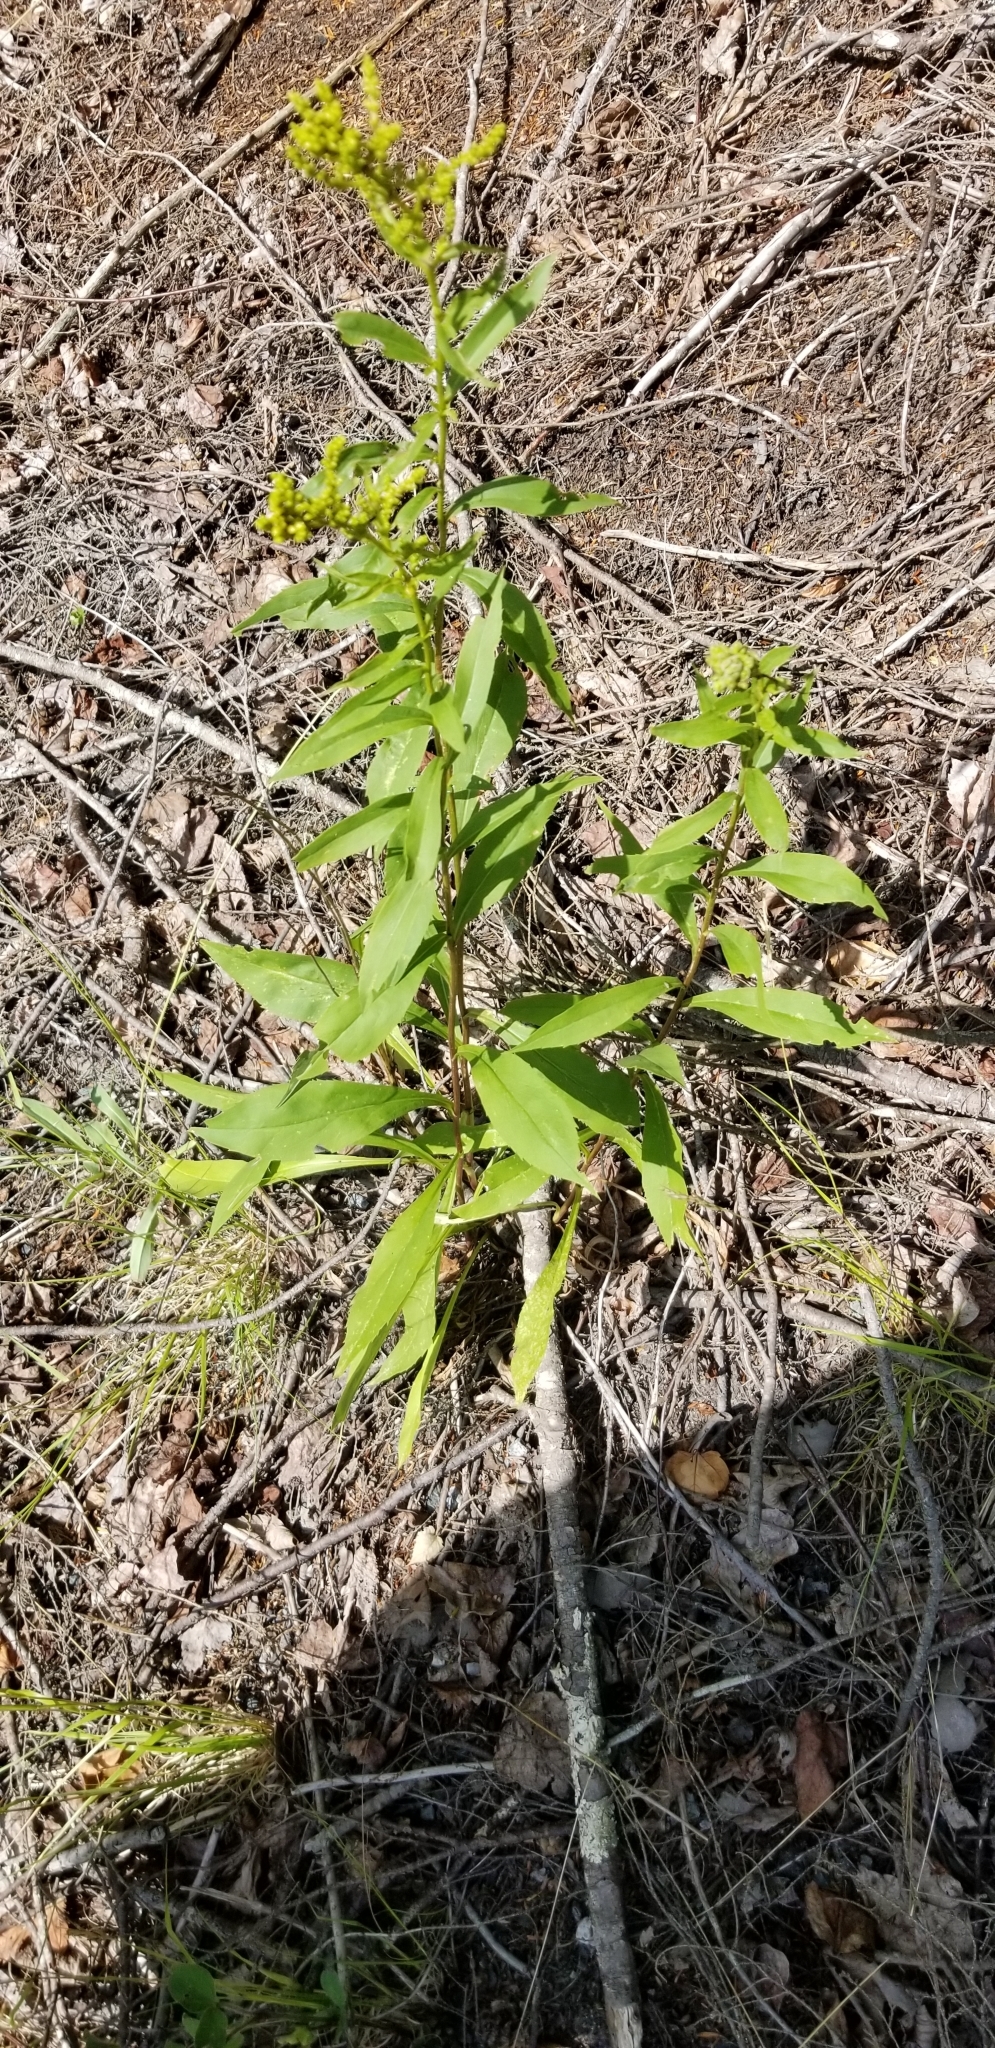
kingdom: Plantae
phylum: Tracheophyta
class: Magnoliopsida
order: Asterales
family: Asteraceae
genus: Solidago
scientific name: Solidago juncea
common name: Early goldenrod
